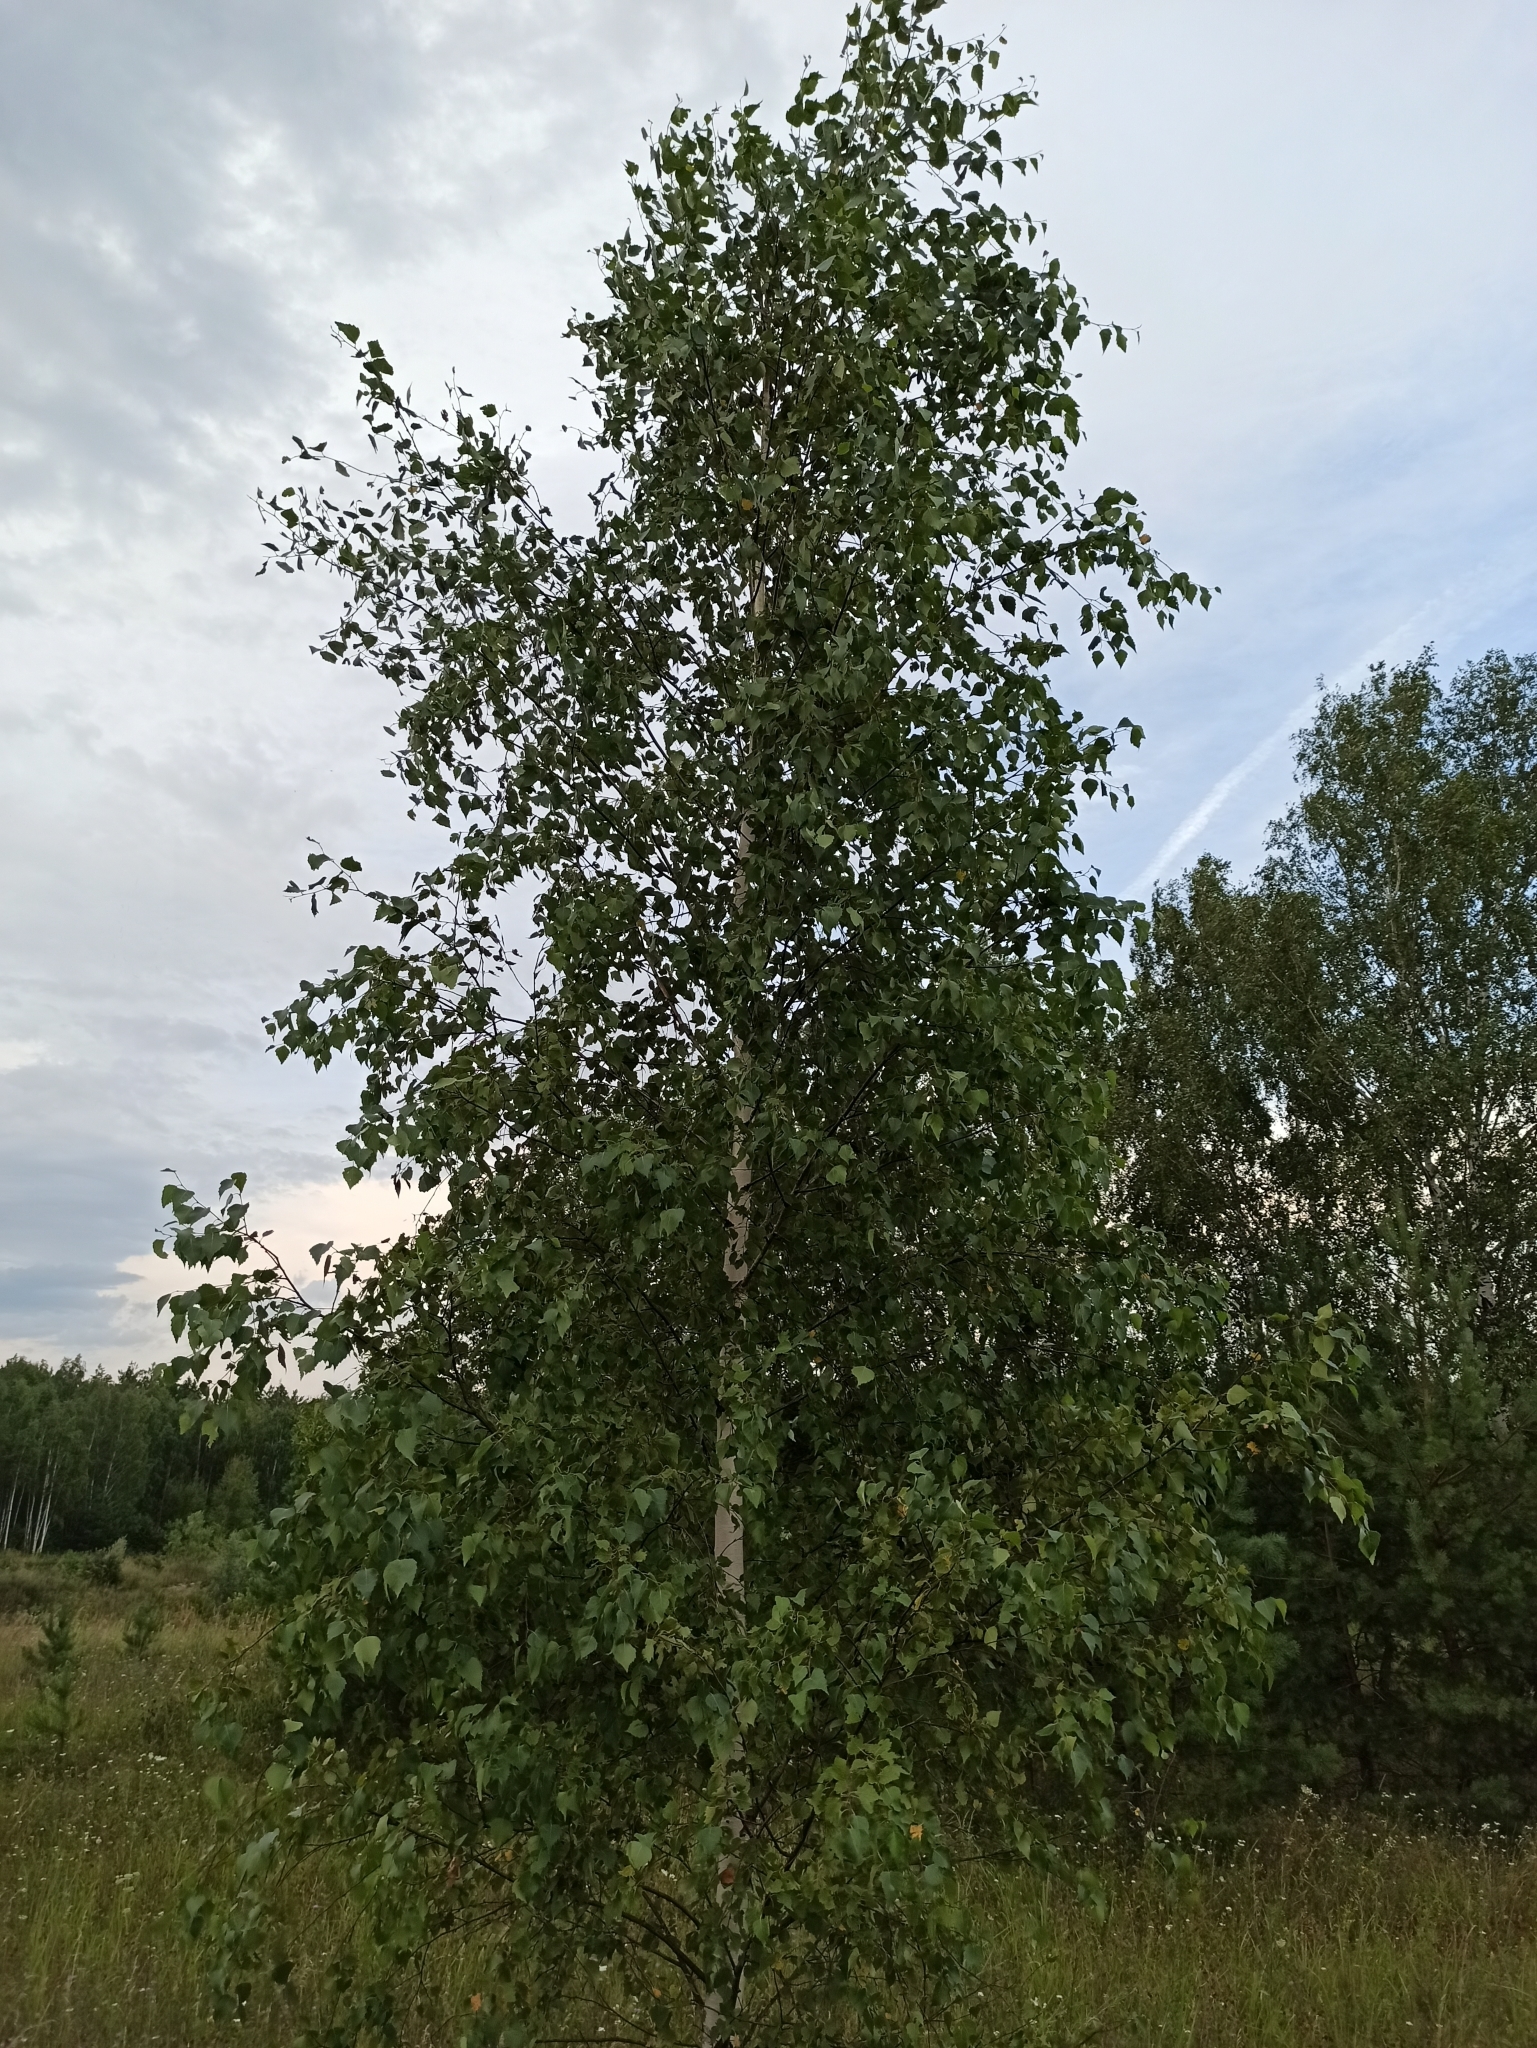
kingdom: Plantae
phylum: Tracheophyta
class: Magnoliopsida
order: Fagales
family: Betulaceae
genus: Betula
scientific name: Betula pendula
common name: Silver birch
